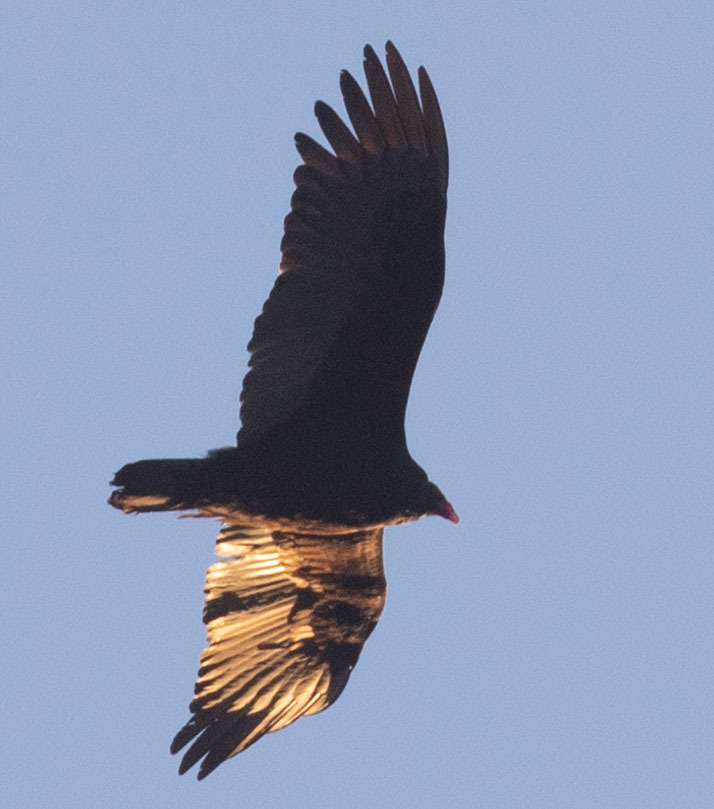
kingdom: Animalia
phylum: Chordata
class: Aves
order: Accipitriformes
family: Cathartidae
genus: Cathartes
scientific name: Cathartes aura
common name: Turkey vulture
